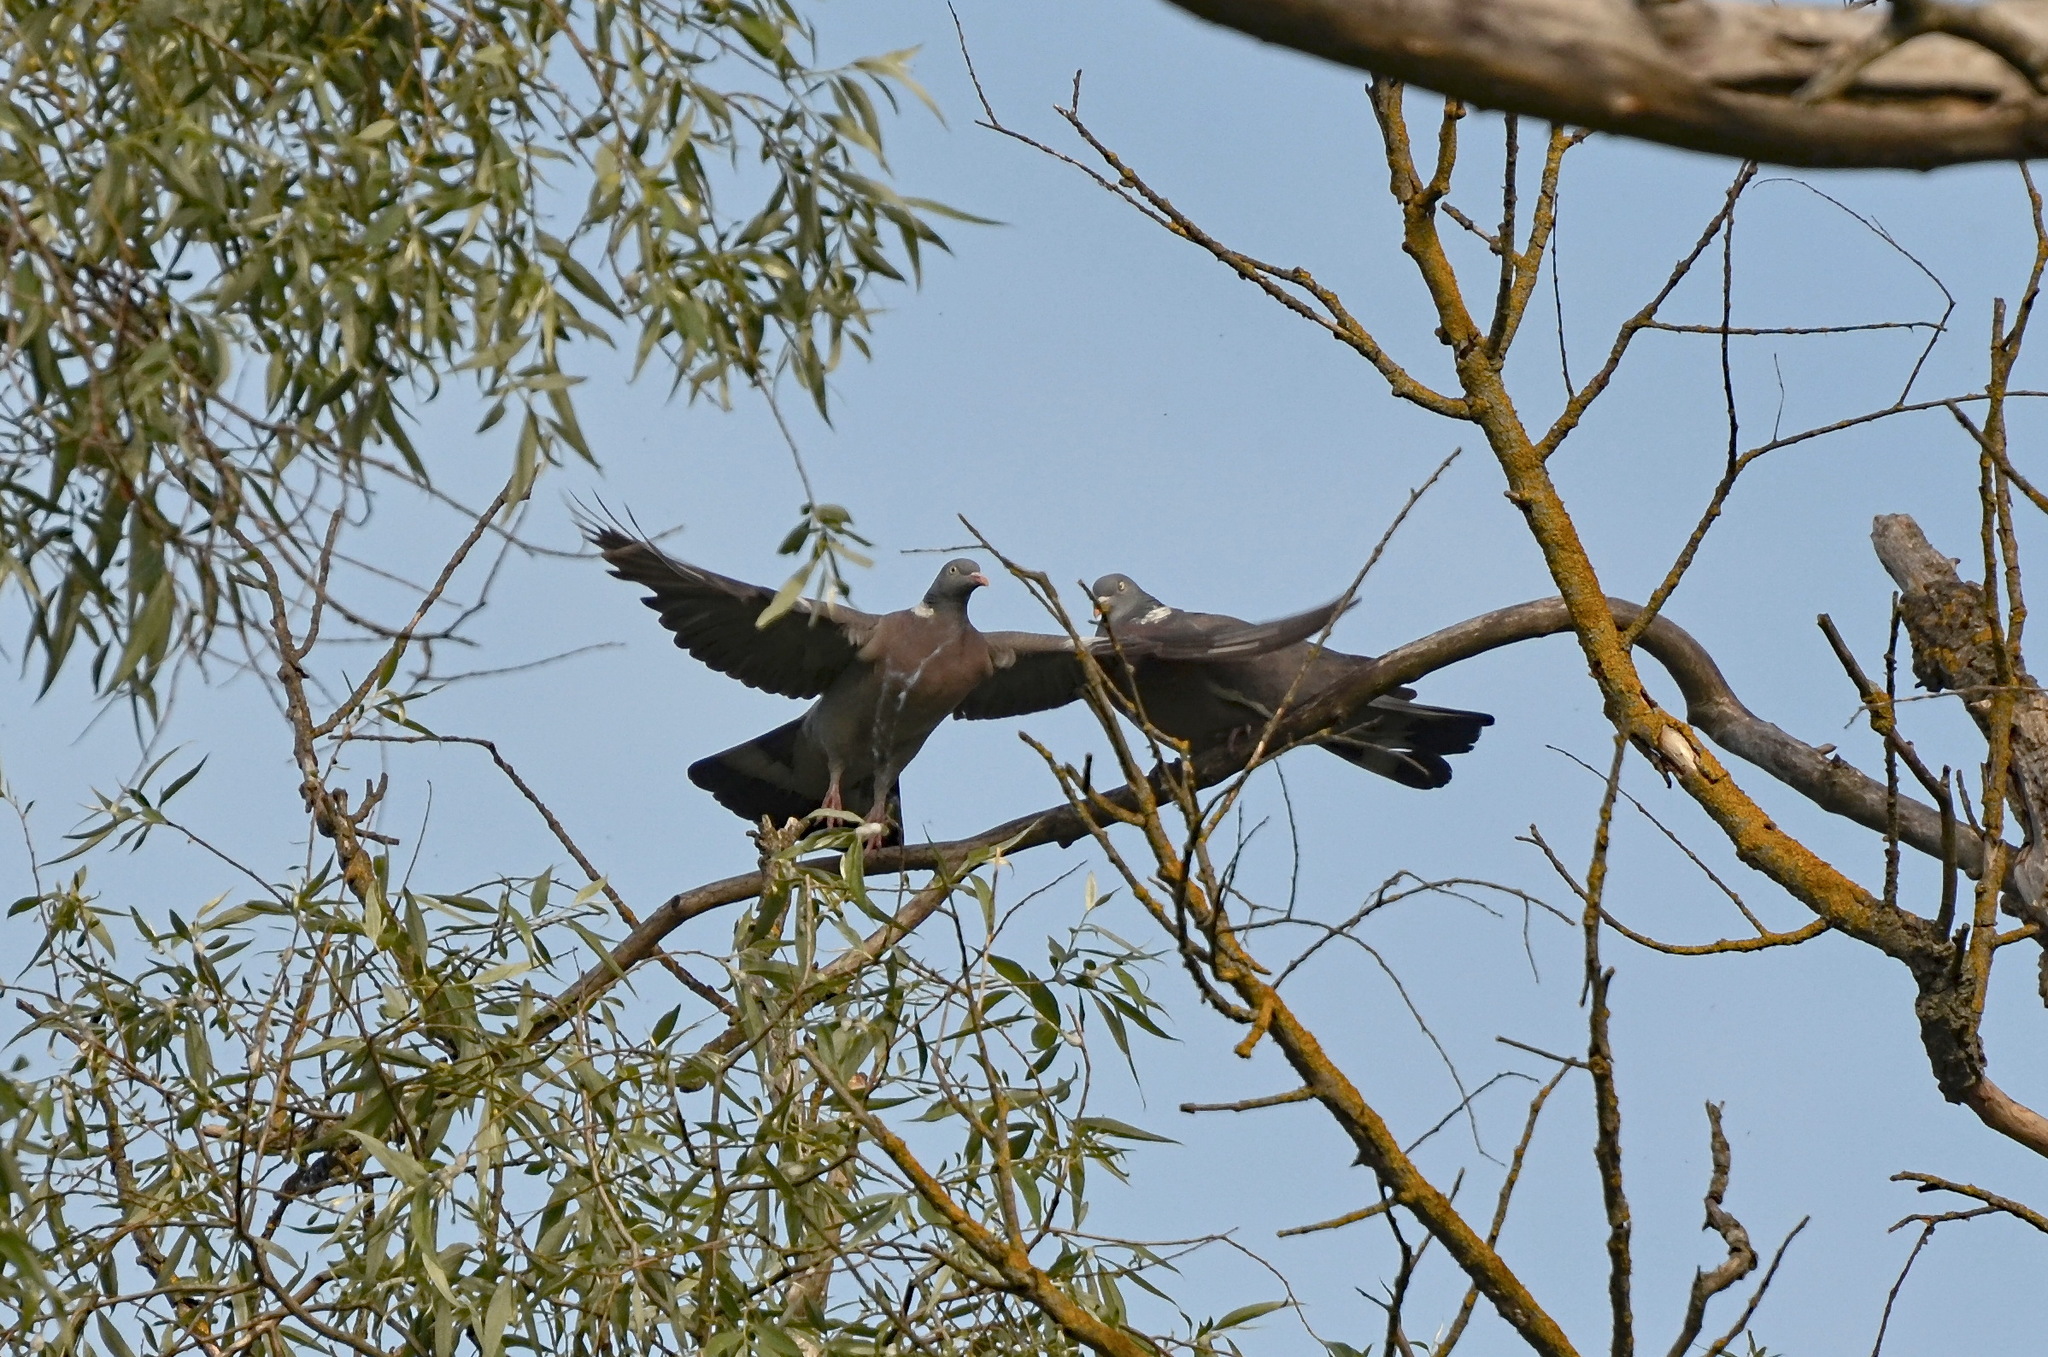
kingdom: Animalia
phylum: Chordata
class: Aves
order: Columbiformes
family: Columbidae
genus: Columba
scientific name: Columba palumbus
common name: Common wood pigeon
